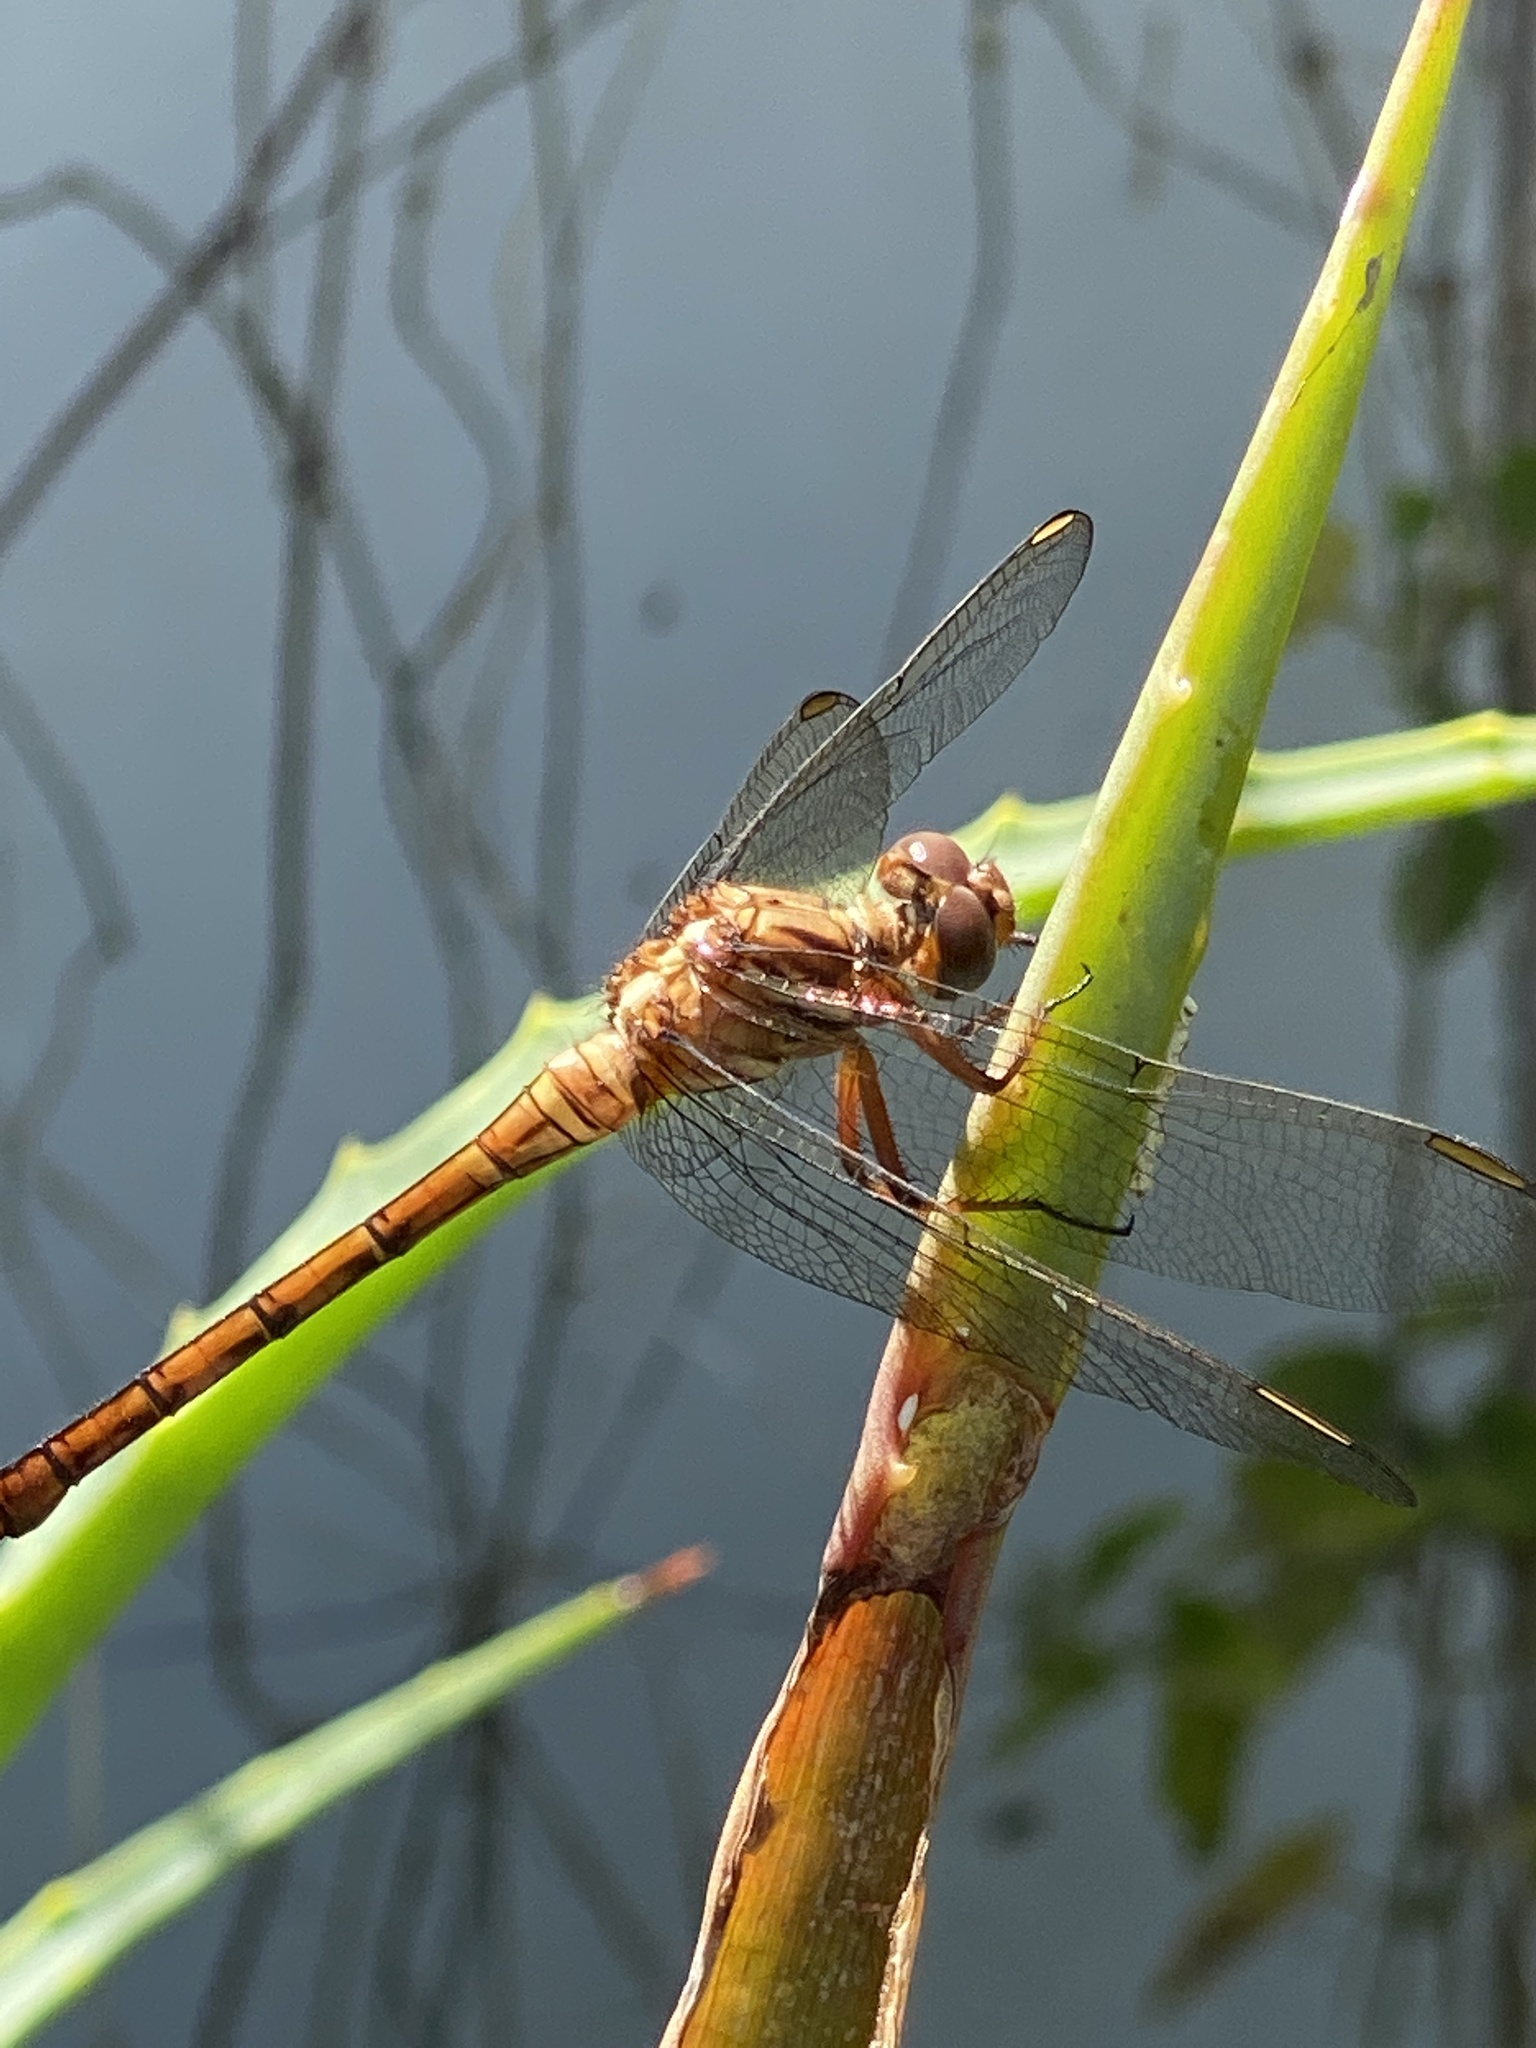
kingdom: Animalia
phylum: Arthropoda
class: Insecta
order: Odonata
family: Libellulidae
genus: Orthetrum
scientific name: Orthetrum julia
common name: Julia skimmer
